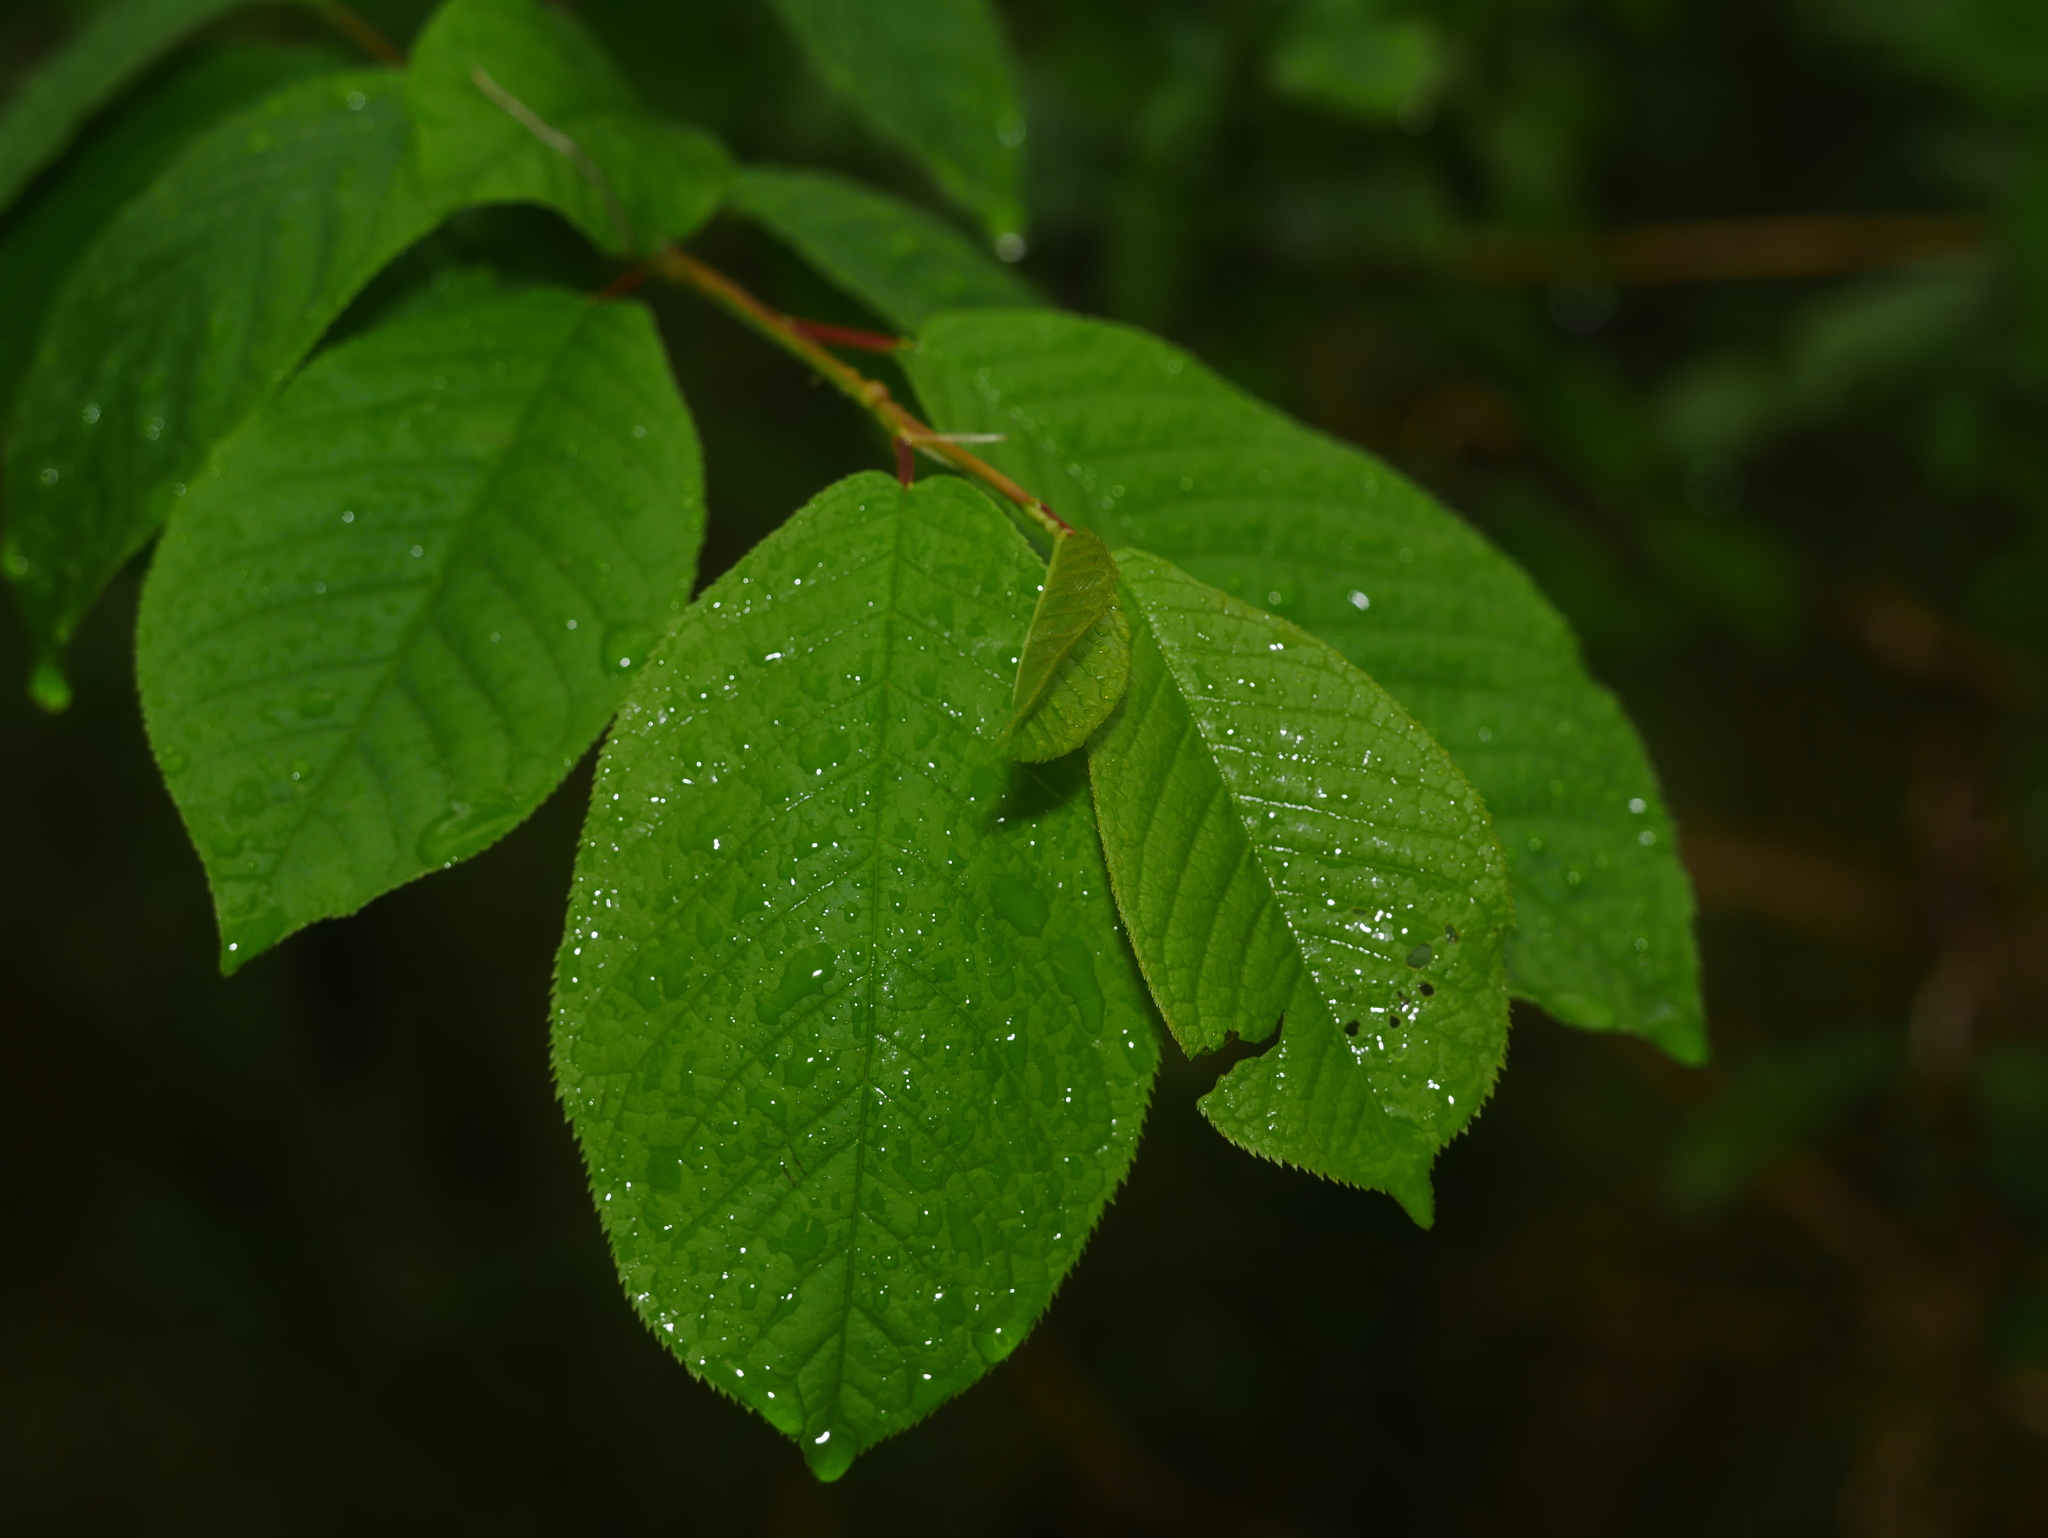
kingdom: Plantae
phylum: Tracheophyta
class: Magnoliopsida
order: Rosales
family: Rosaceae
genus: Prunus
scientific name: Prunus padus
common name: Bird cherry
